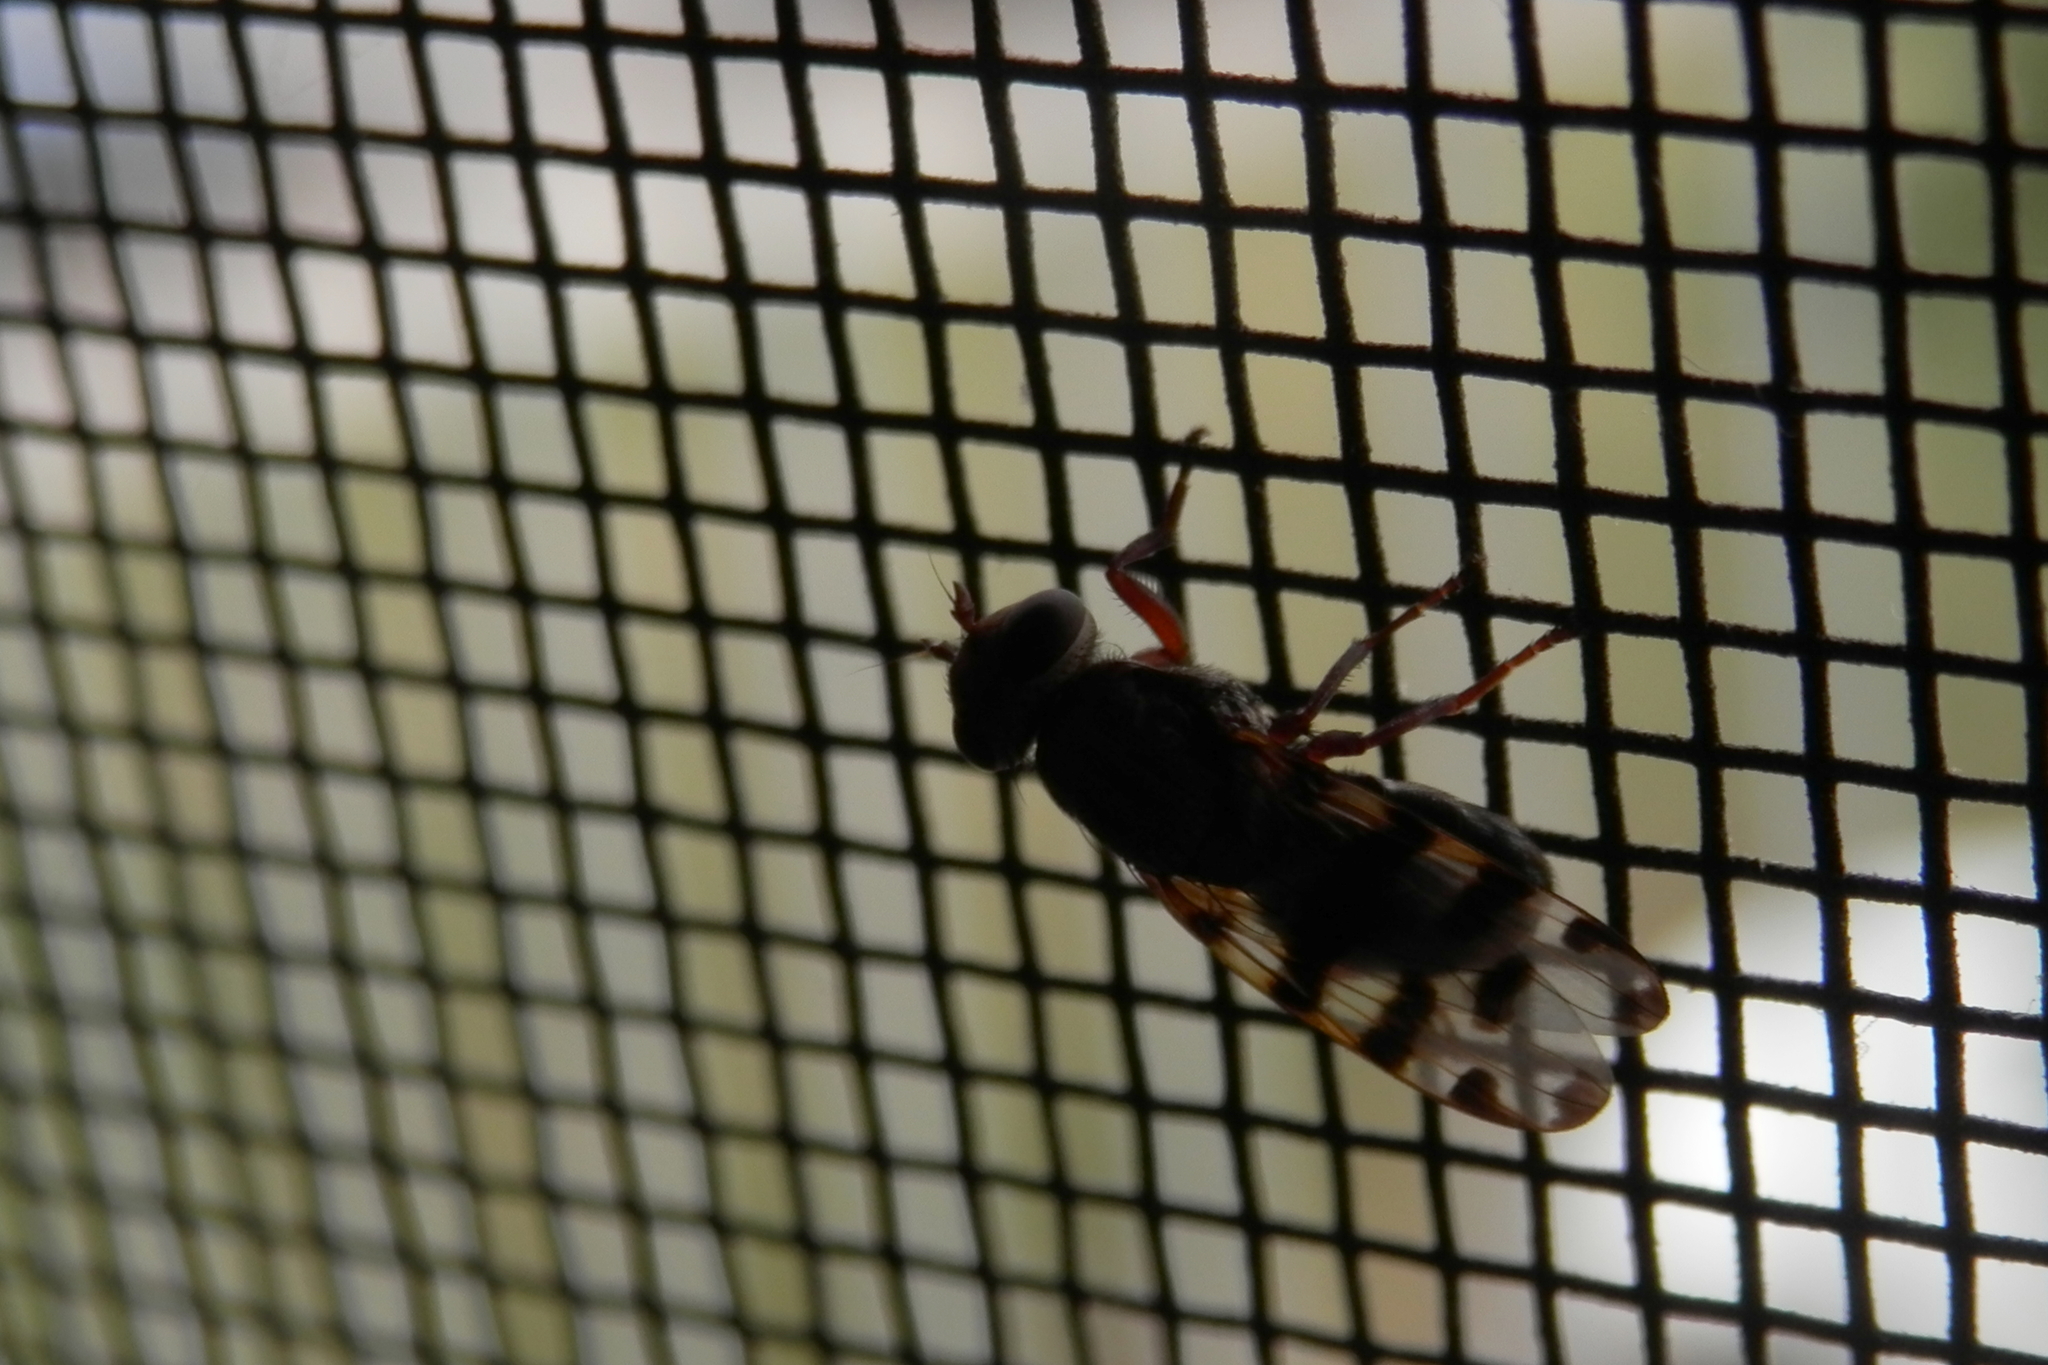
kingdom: Animalia
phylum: Arthropoda
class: Insecta
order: Diptera
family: Ulidiidae
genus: Ceroxys
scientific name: Ceroxys latiusculus
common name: Picture-winged fly
